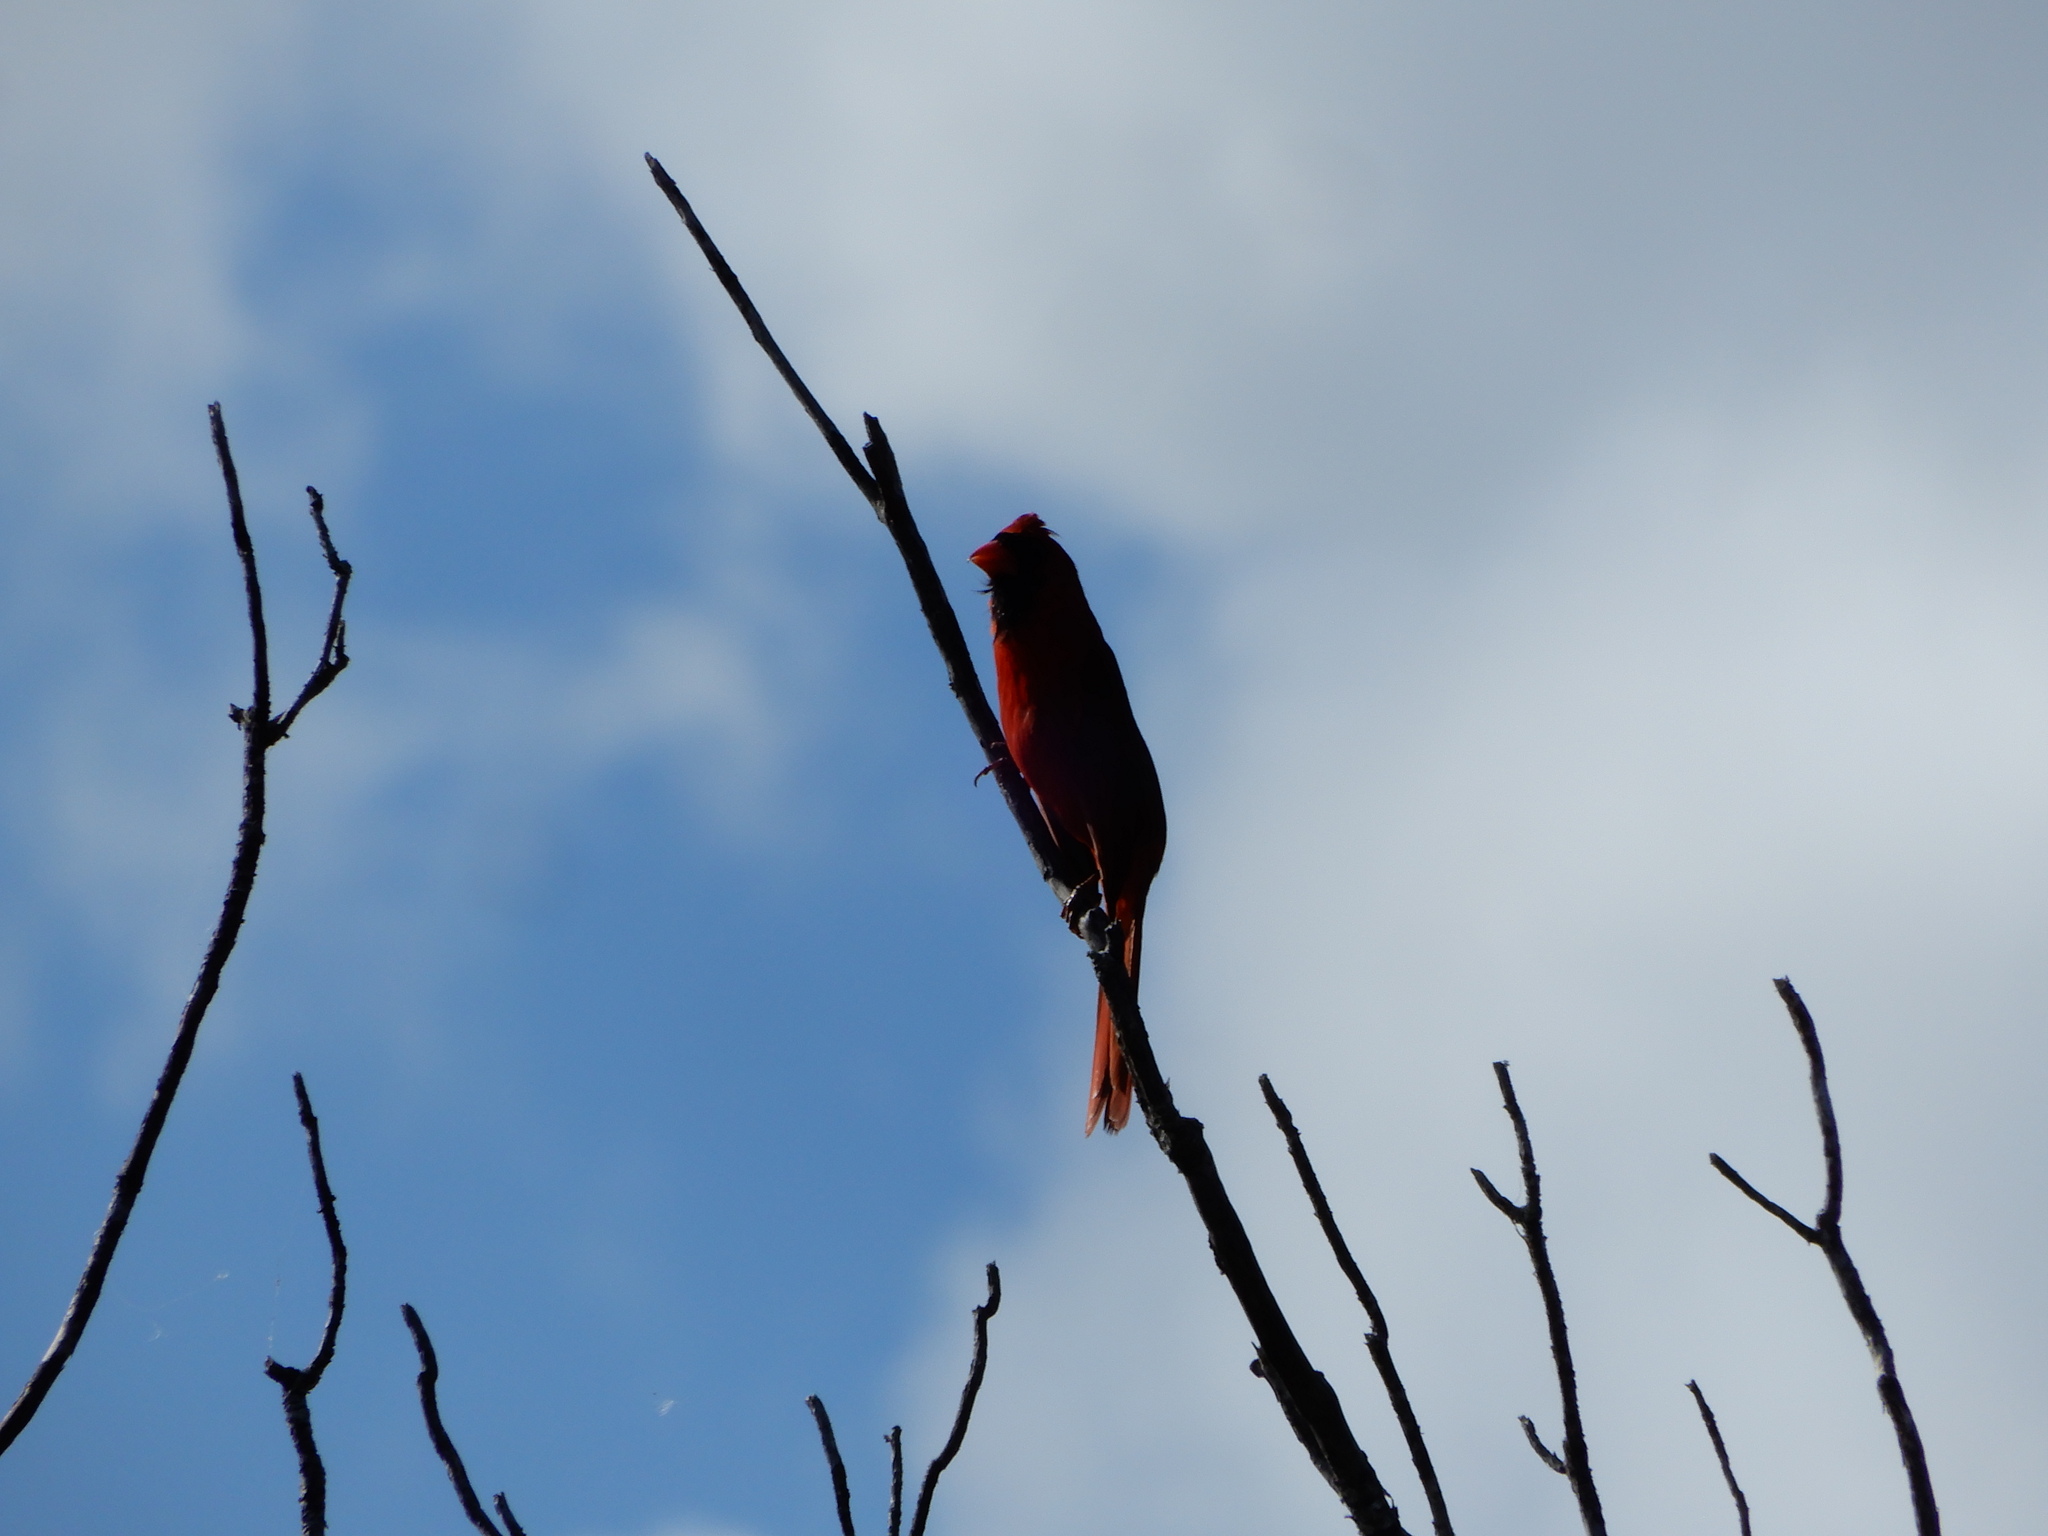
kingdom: Animalia
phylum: Chordata
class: Aves
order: Passeriformes
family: Cardinalidae
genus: Cardinalis
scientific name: Cardinalis cardinalis
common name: Northern cardinal
